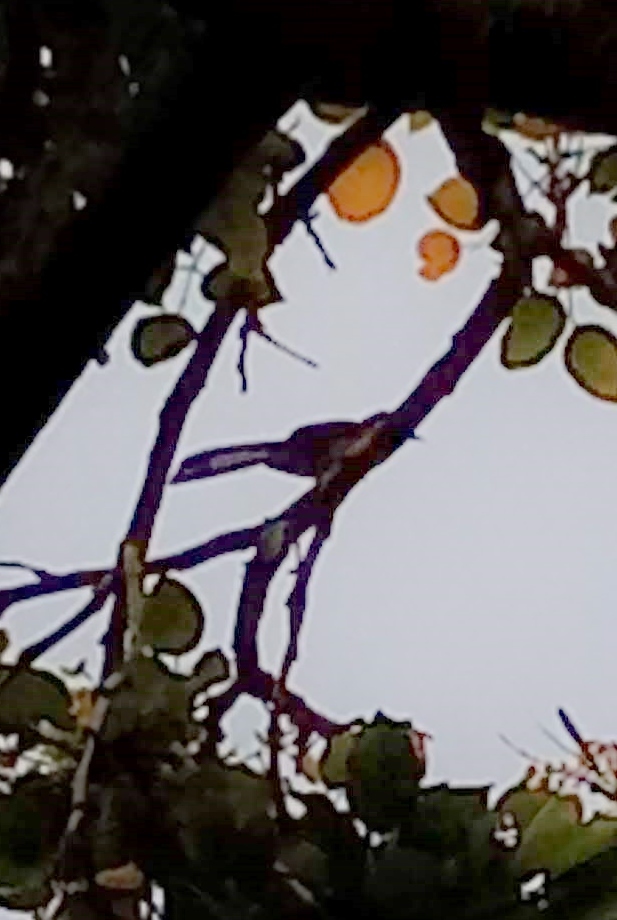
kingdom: Animalia
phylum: Chordata
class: Aves
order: Passeriformes
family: Muscicapidae
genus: Copsychus
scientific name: Copsychus malabaricus
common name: White-rumped shama
